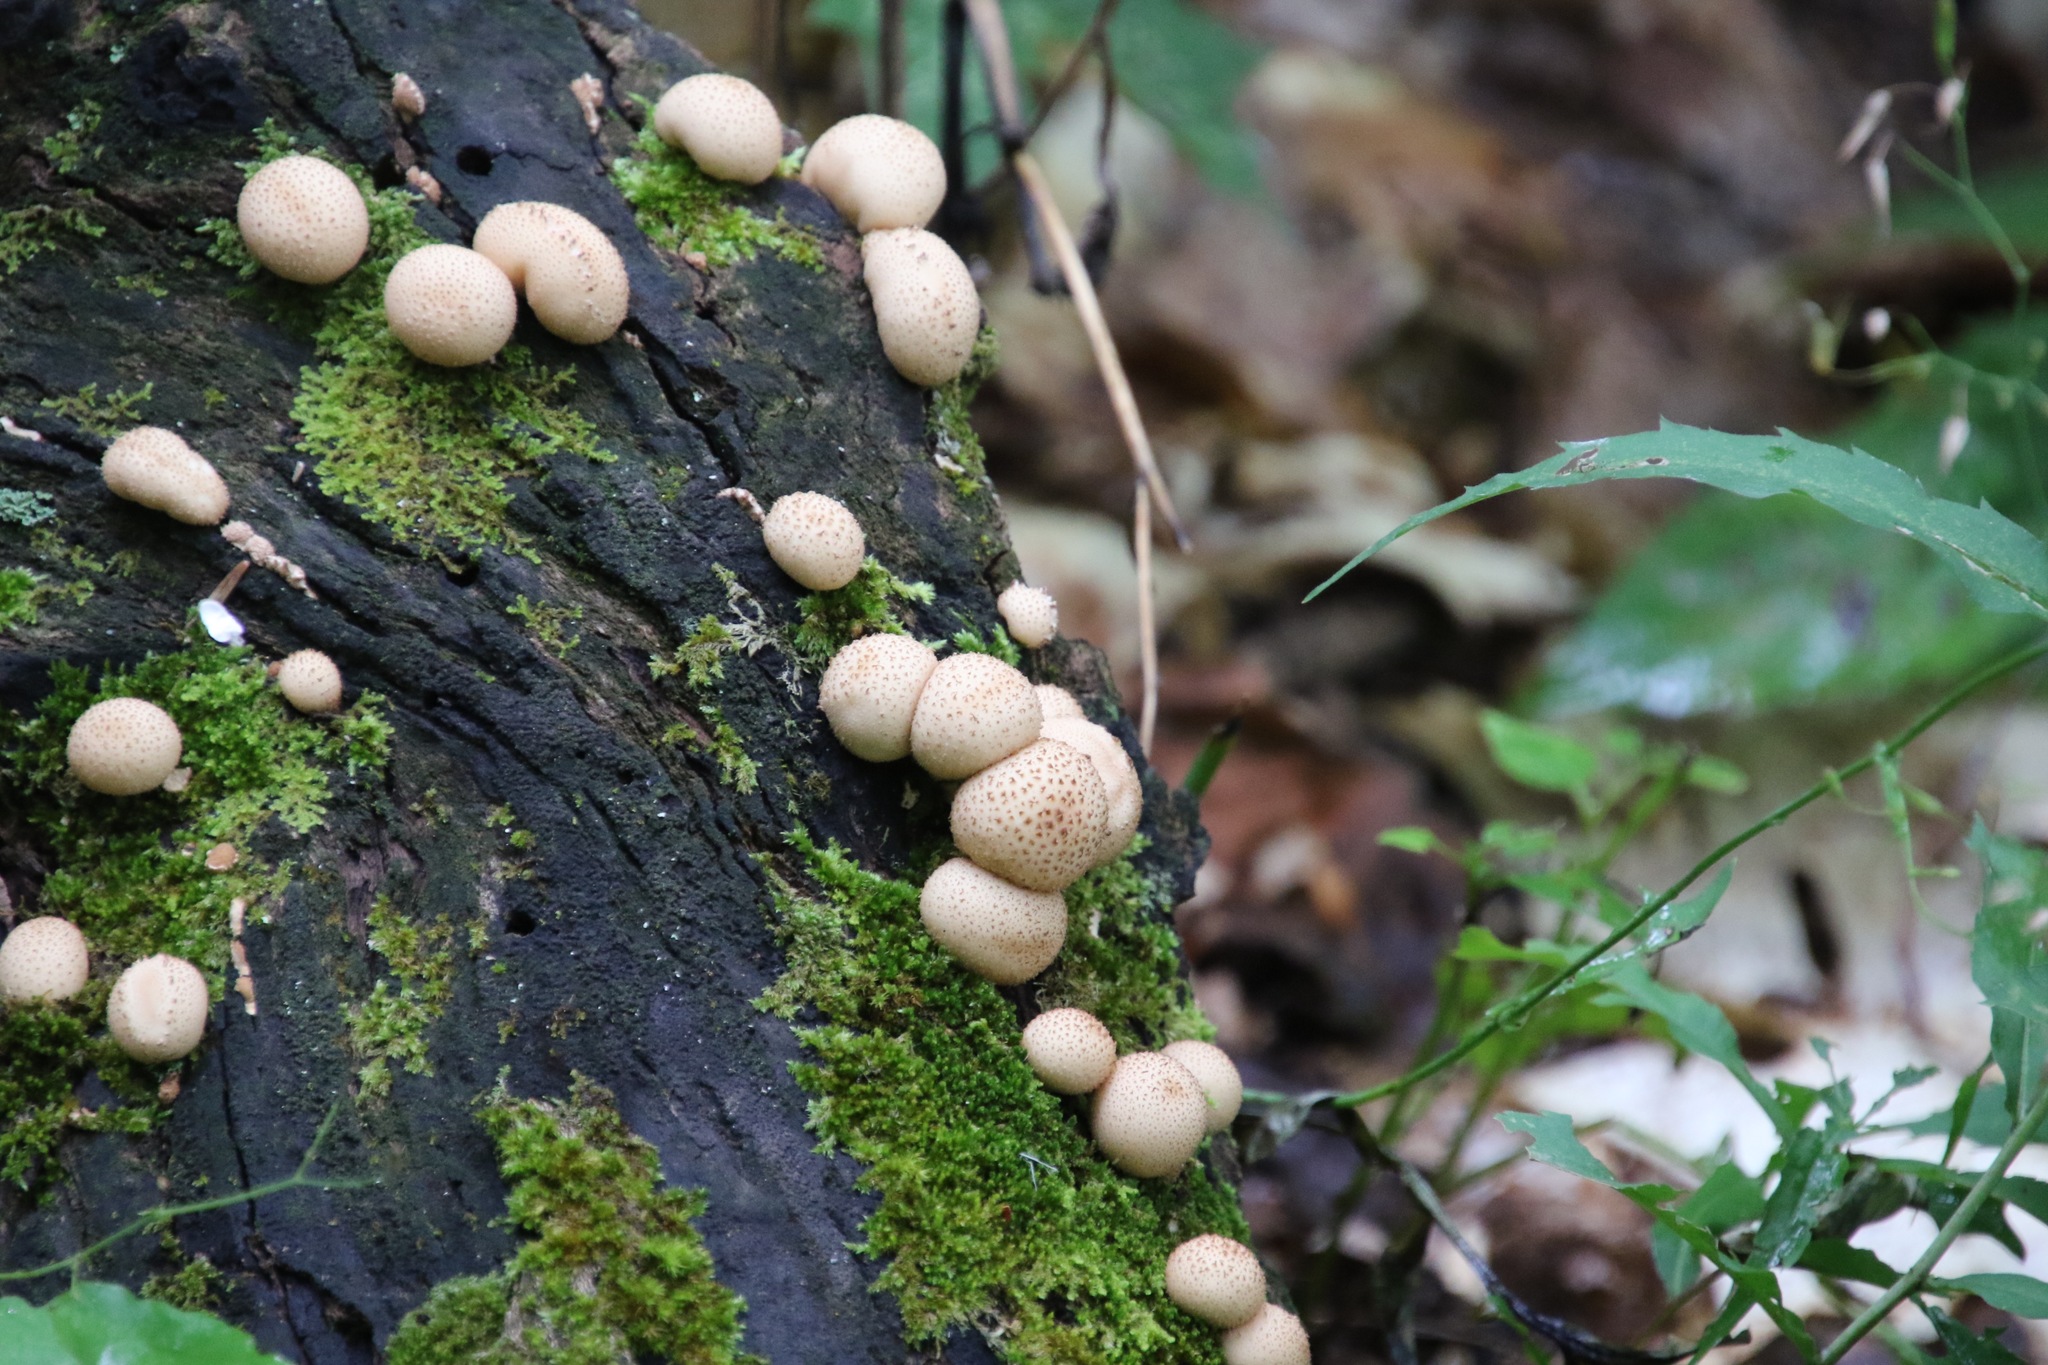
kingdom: Fungi
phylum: Basidiomycota
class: Agaricomycetes
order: Agaricales
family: Lycoperdaceae
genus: Apioperdon
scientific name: Apioperdon pyriforme
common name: Pear-shaped puffball
